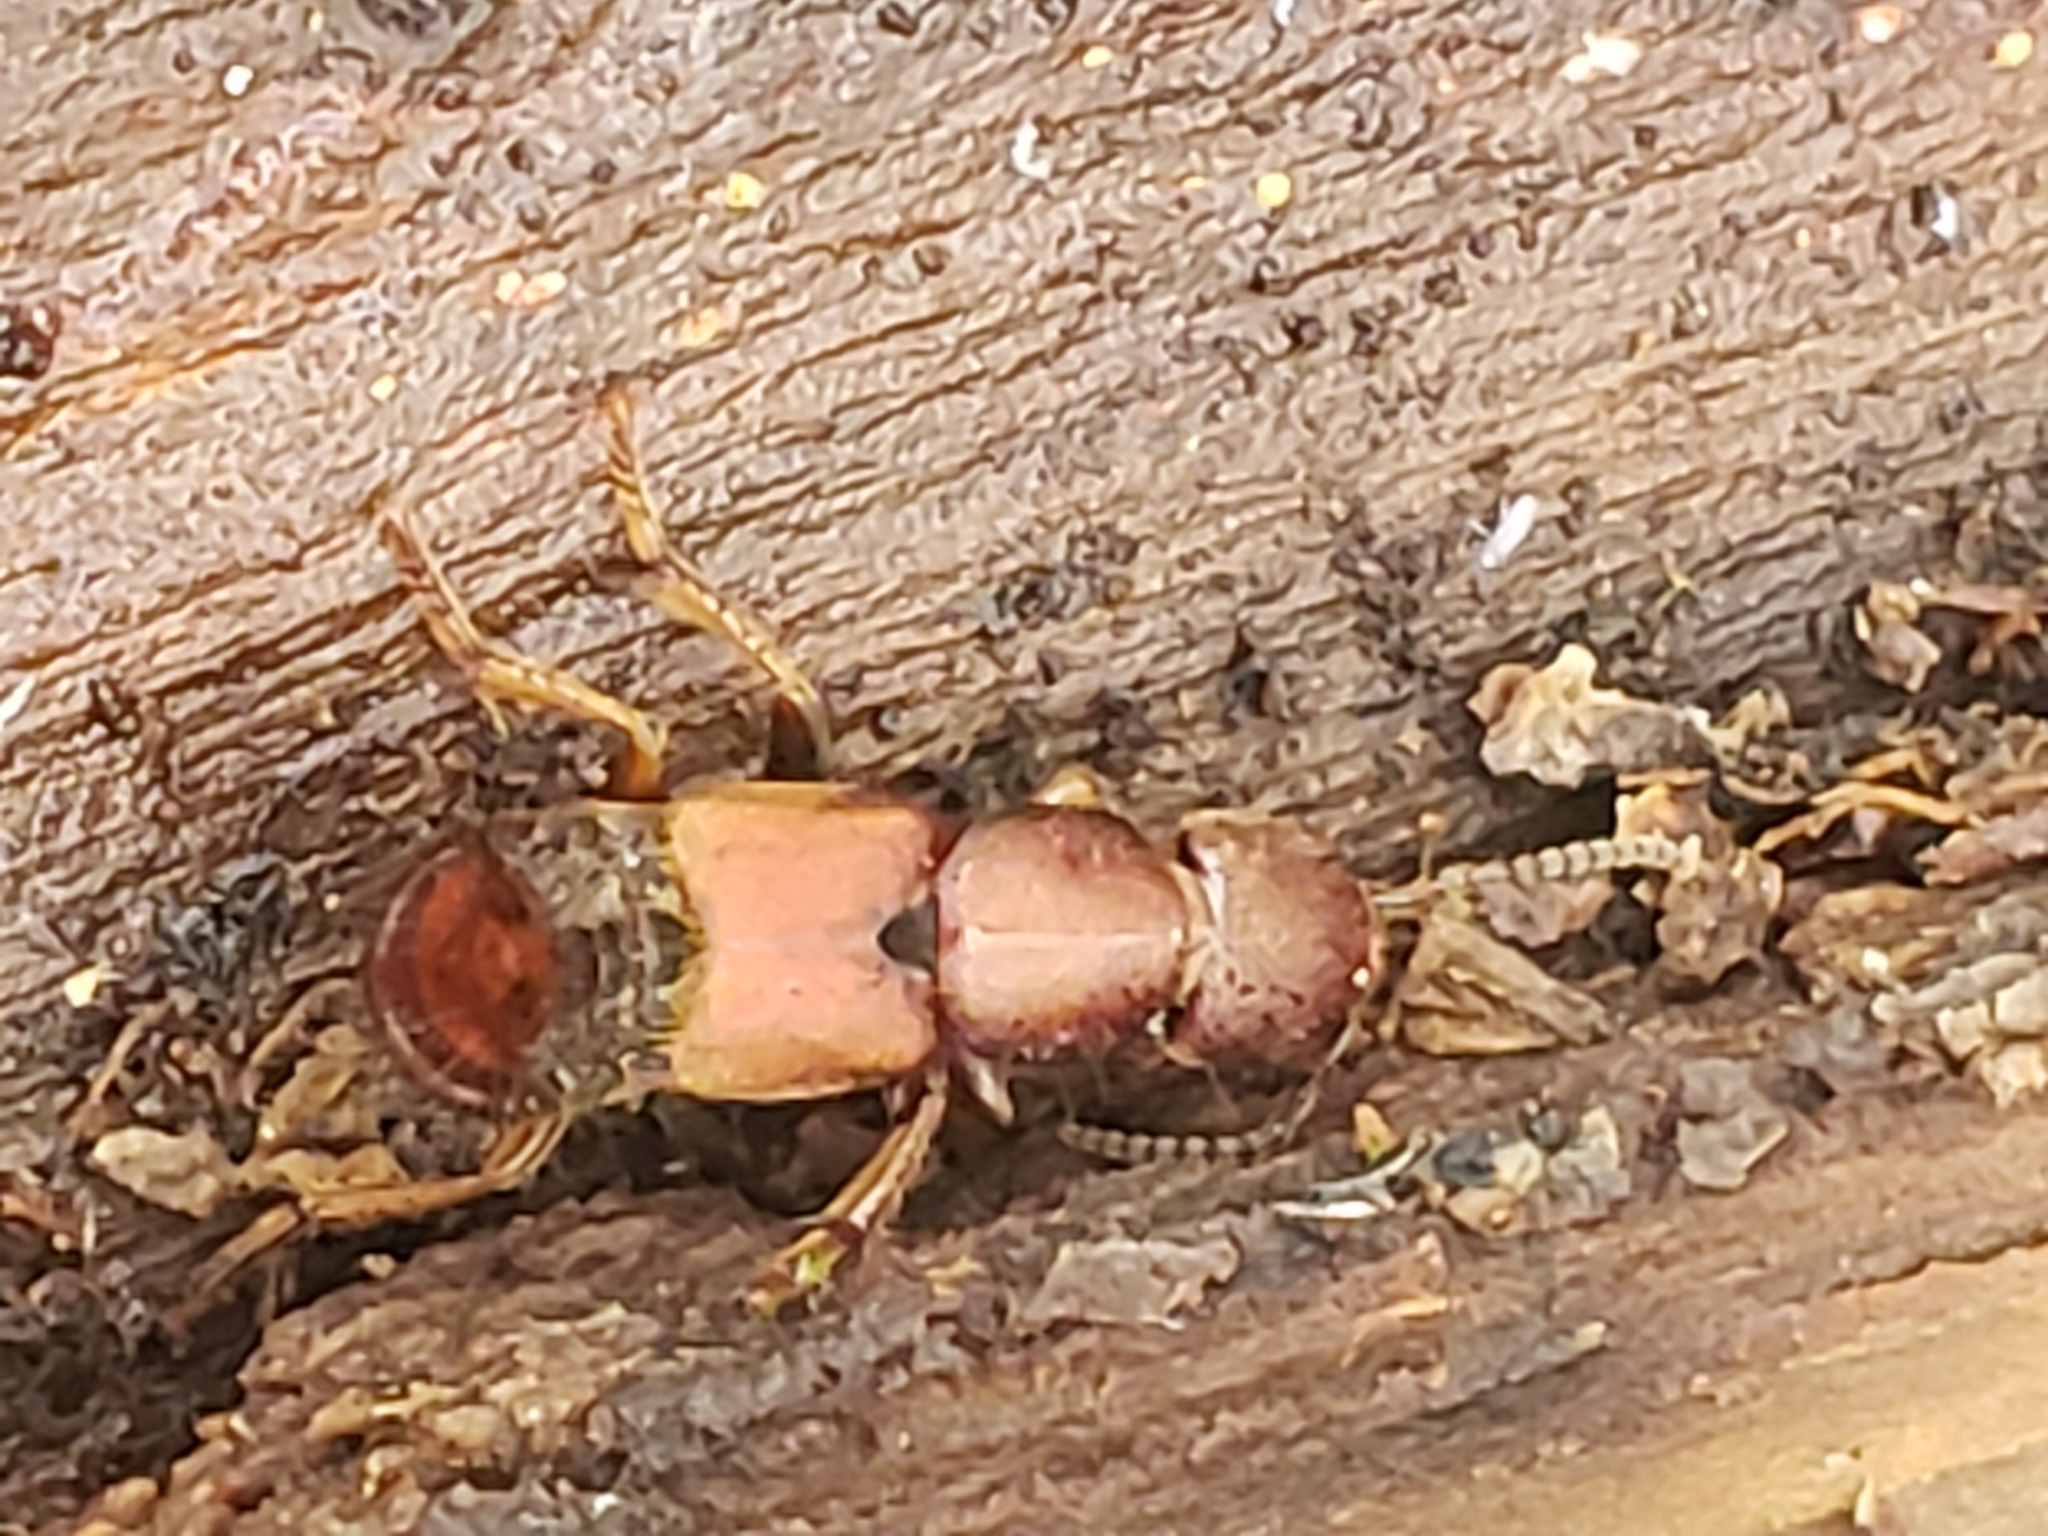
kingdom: Animalia
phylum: Arthropoda
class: Insecta
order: Coleoptera
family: Staphylinidae
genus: Platydracus
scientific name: Platydracus cinnamopterus
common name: Cinnamon rove beetle
